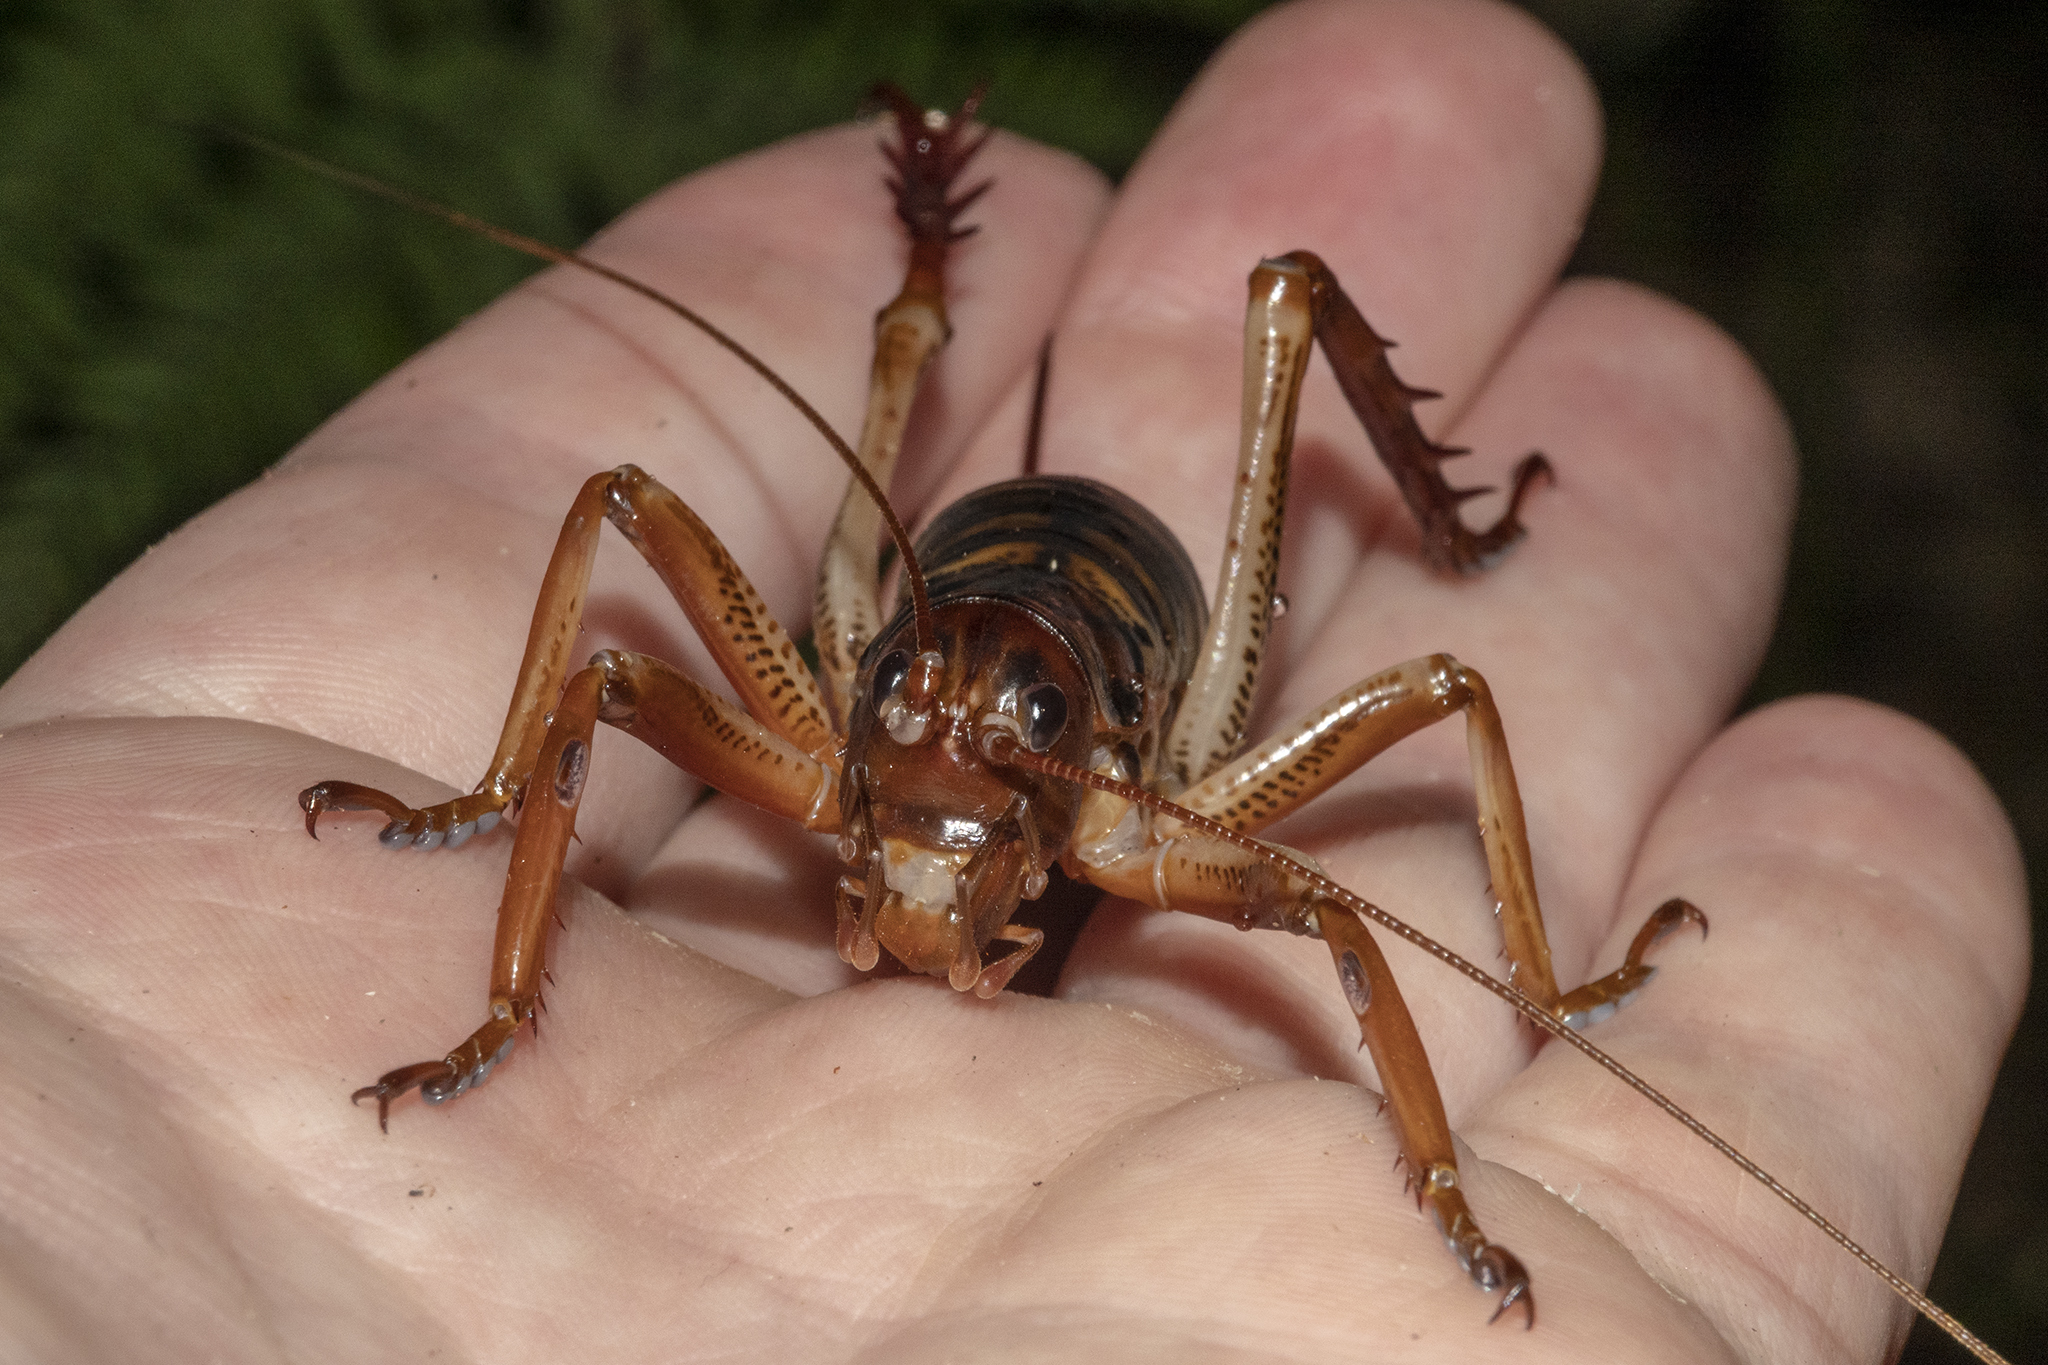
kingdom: Animalia
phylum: Arthropoda
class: Insecta
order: Orthoptera
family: Anostostomatidae
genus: Hemideina
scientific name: Hemideina crassidens
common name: Wellington tree weta
